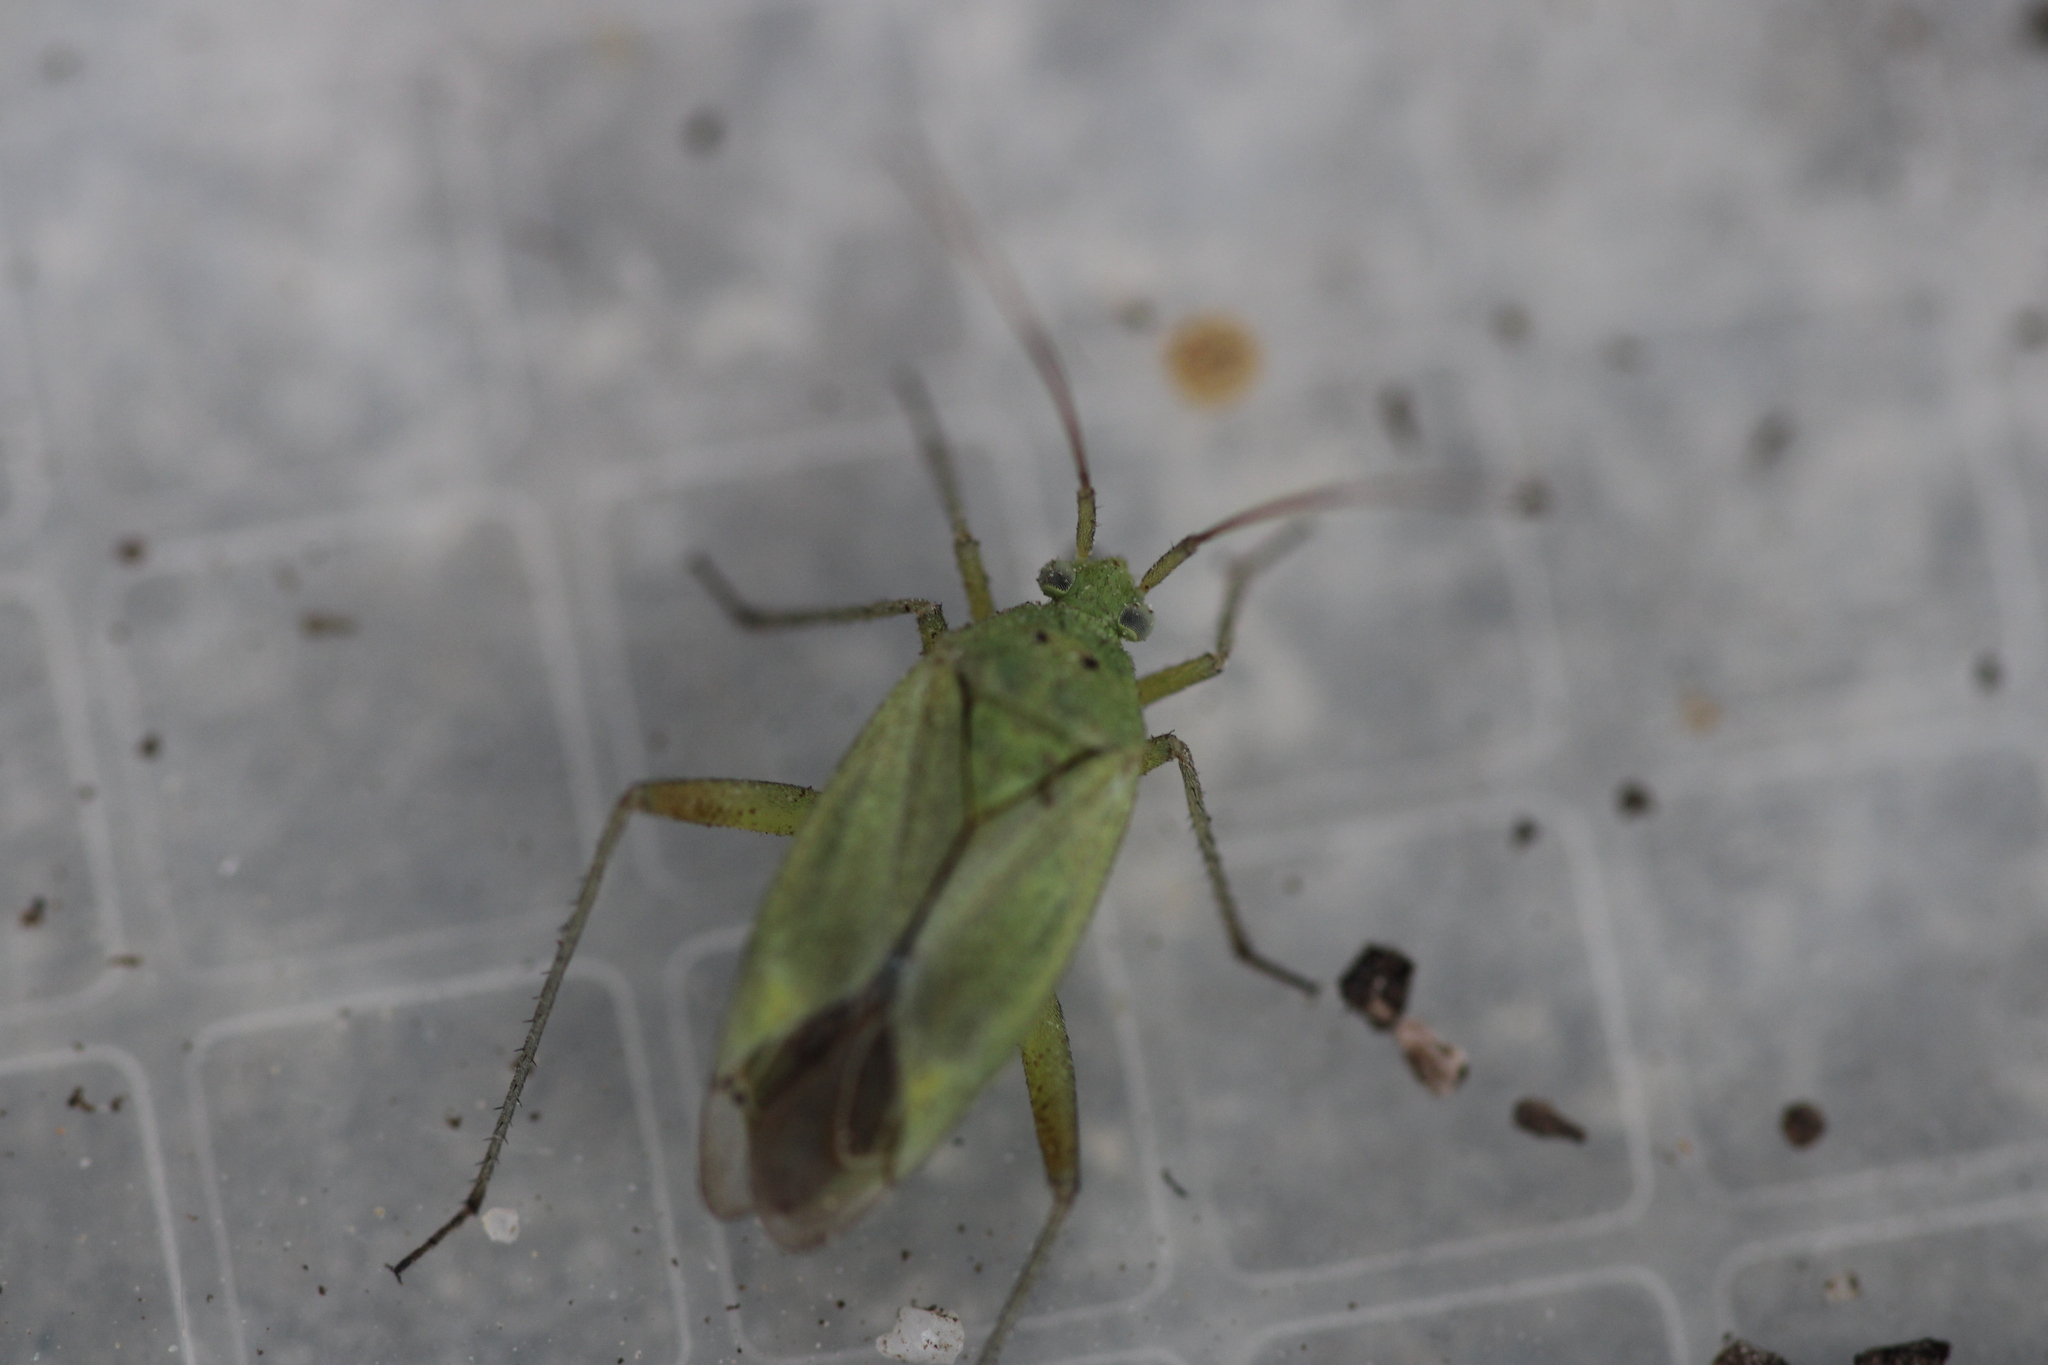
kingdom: Animalia
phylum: Arthropoda
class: Insecta
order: Hemiptera
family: Miridae
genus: Closterotomus
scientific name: Closterotomus norvegicus
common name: Plant bug
